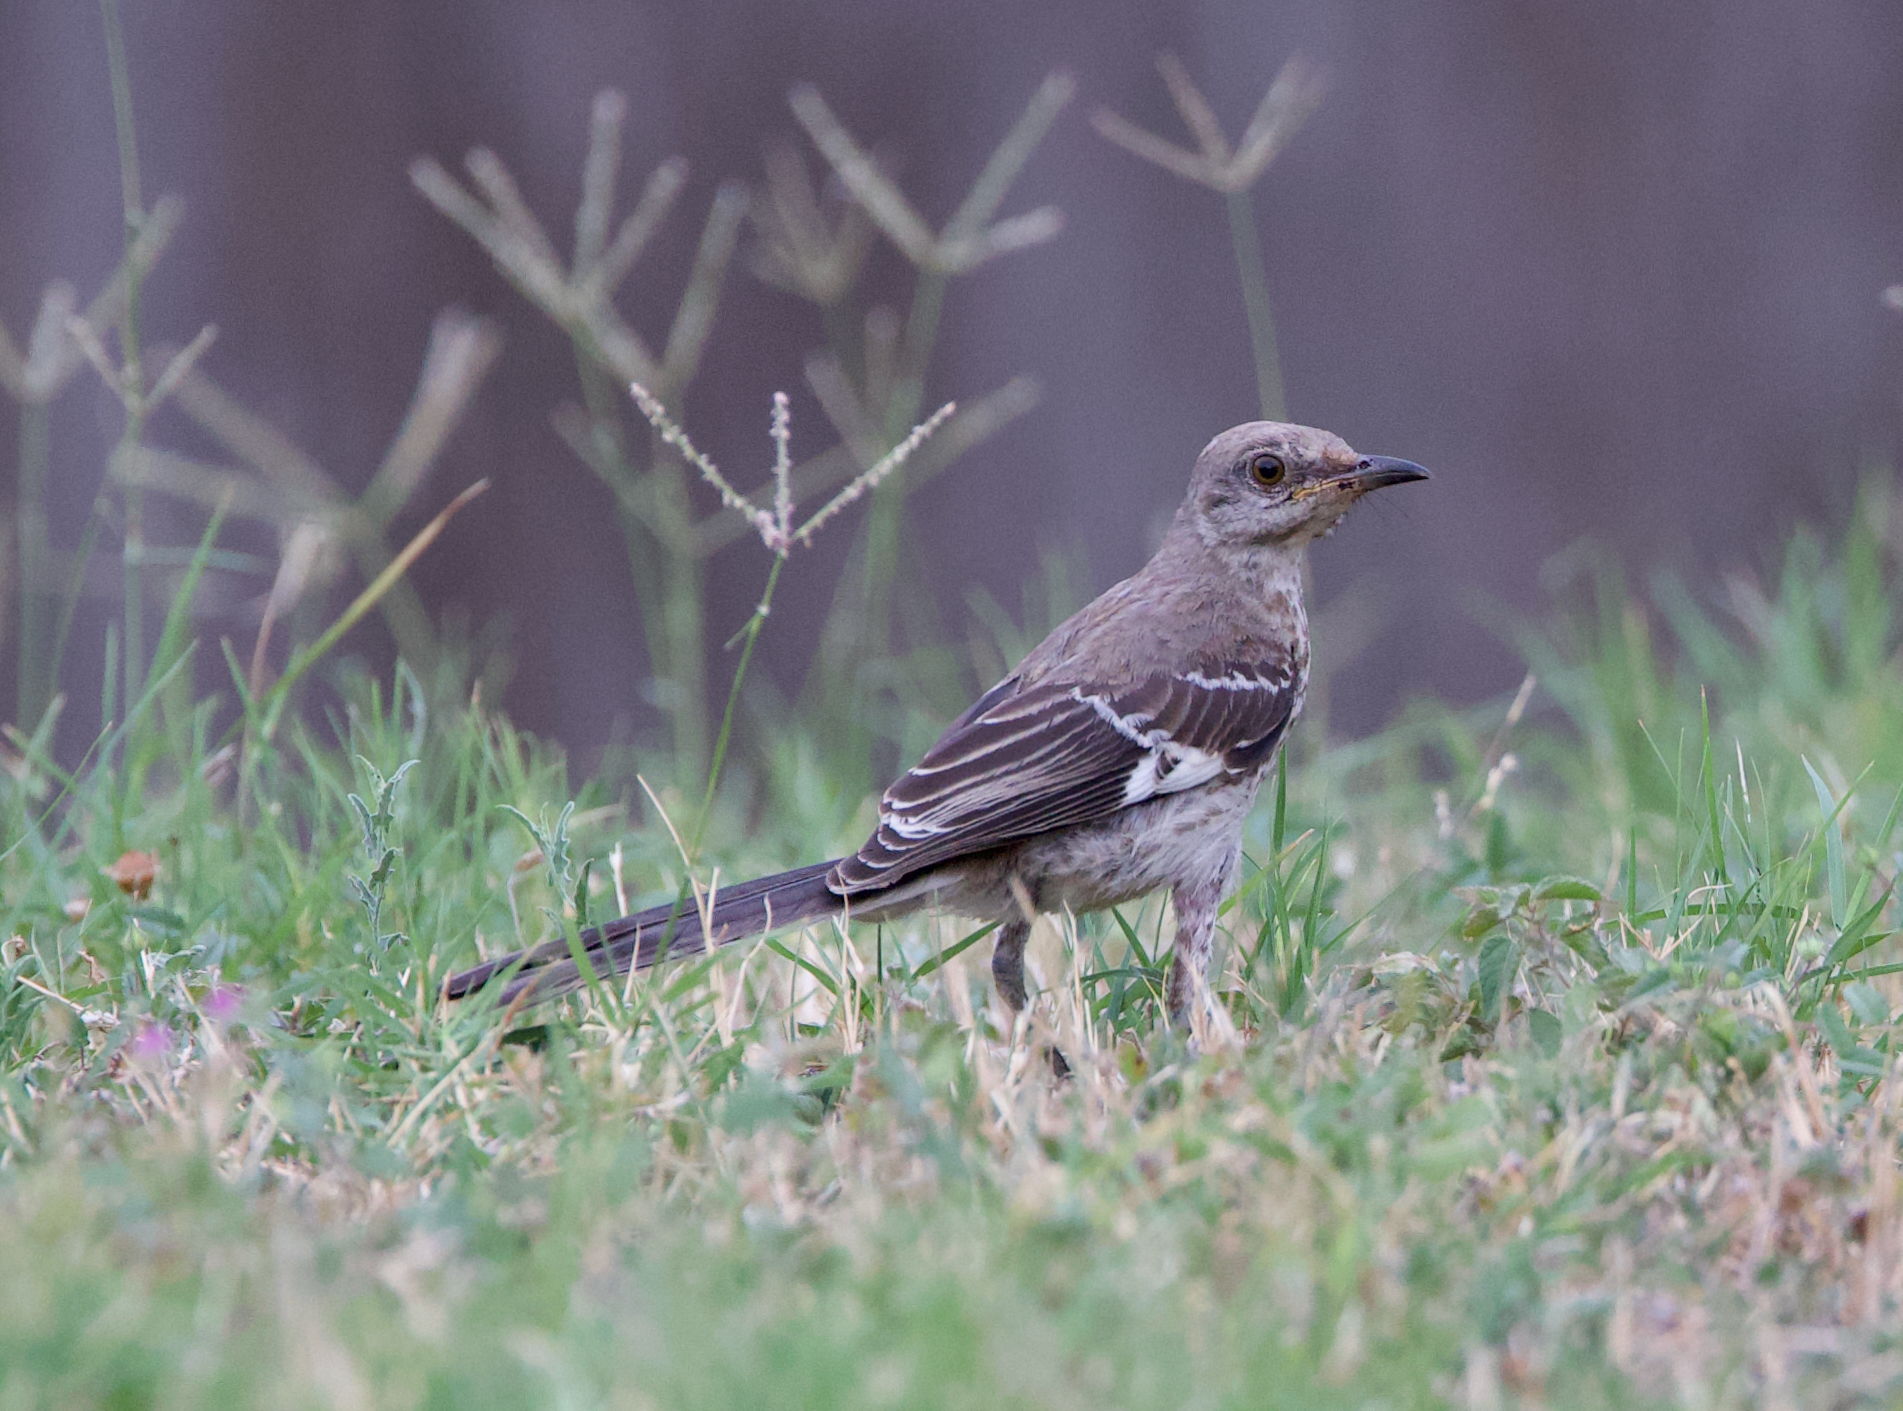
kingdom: Animalia
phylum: Chordata
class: Aves
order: Passeriformes
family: Mimidae
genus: Mimus
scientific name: Mimus polyglottos
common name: Northern mockingbird
